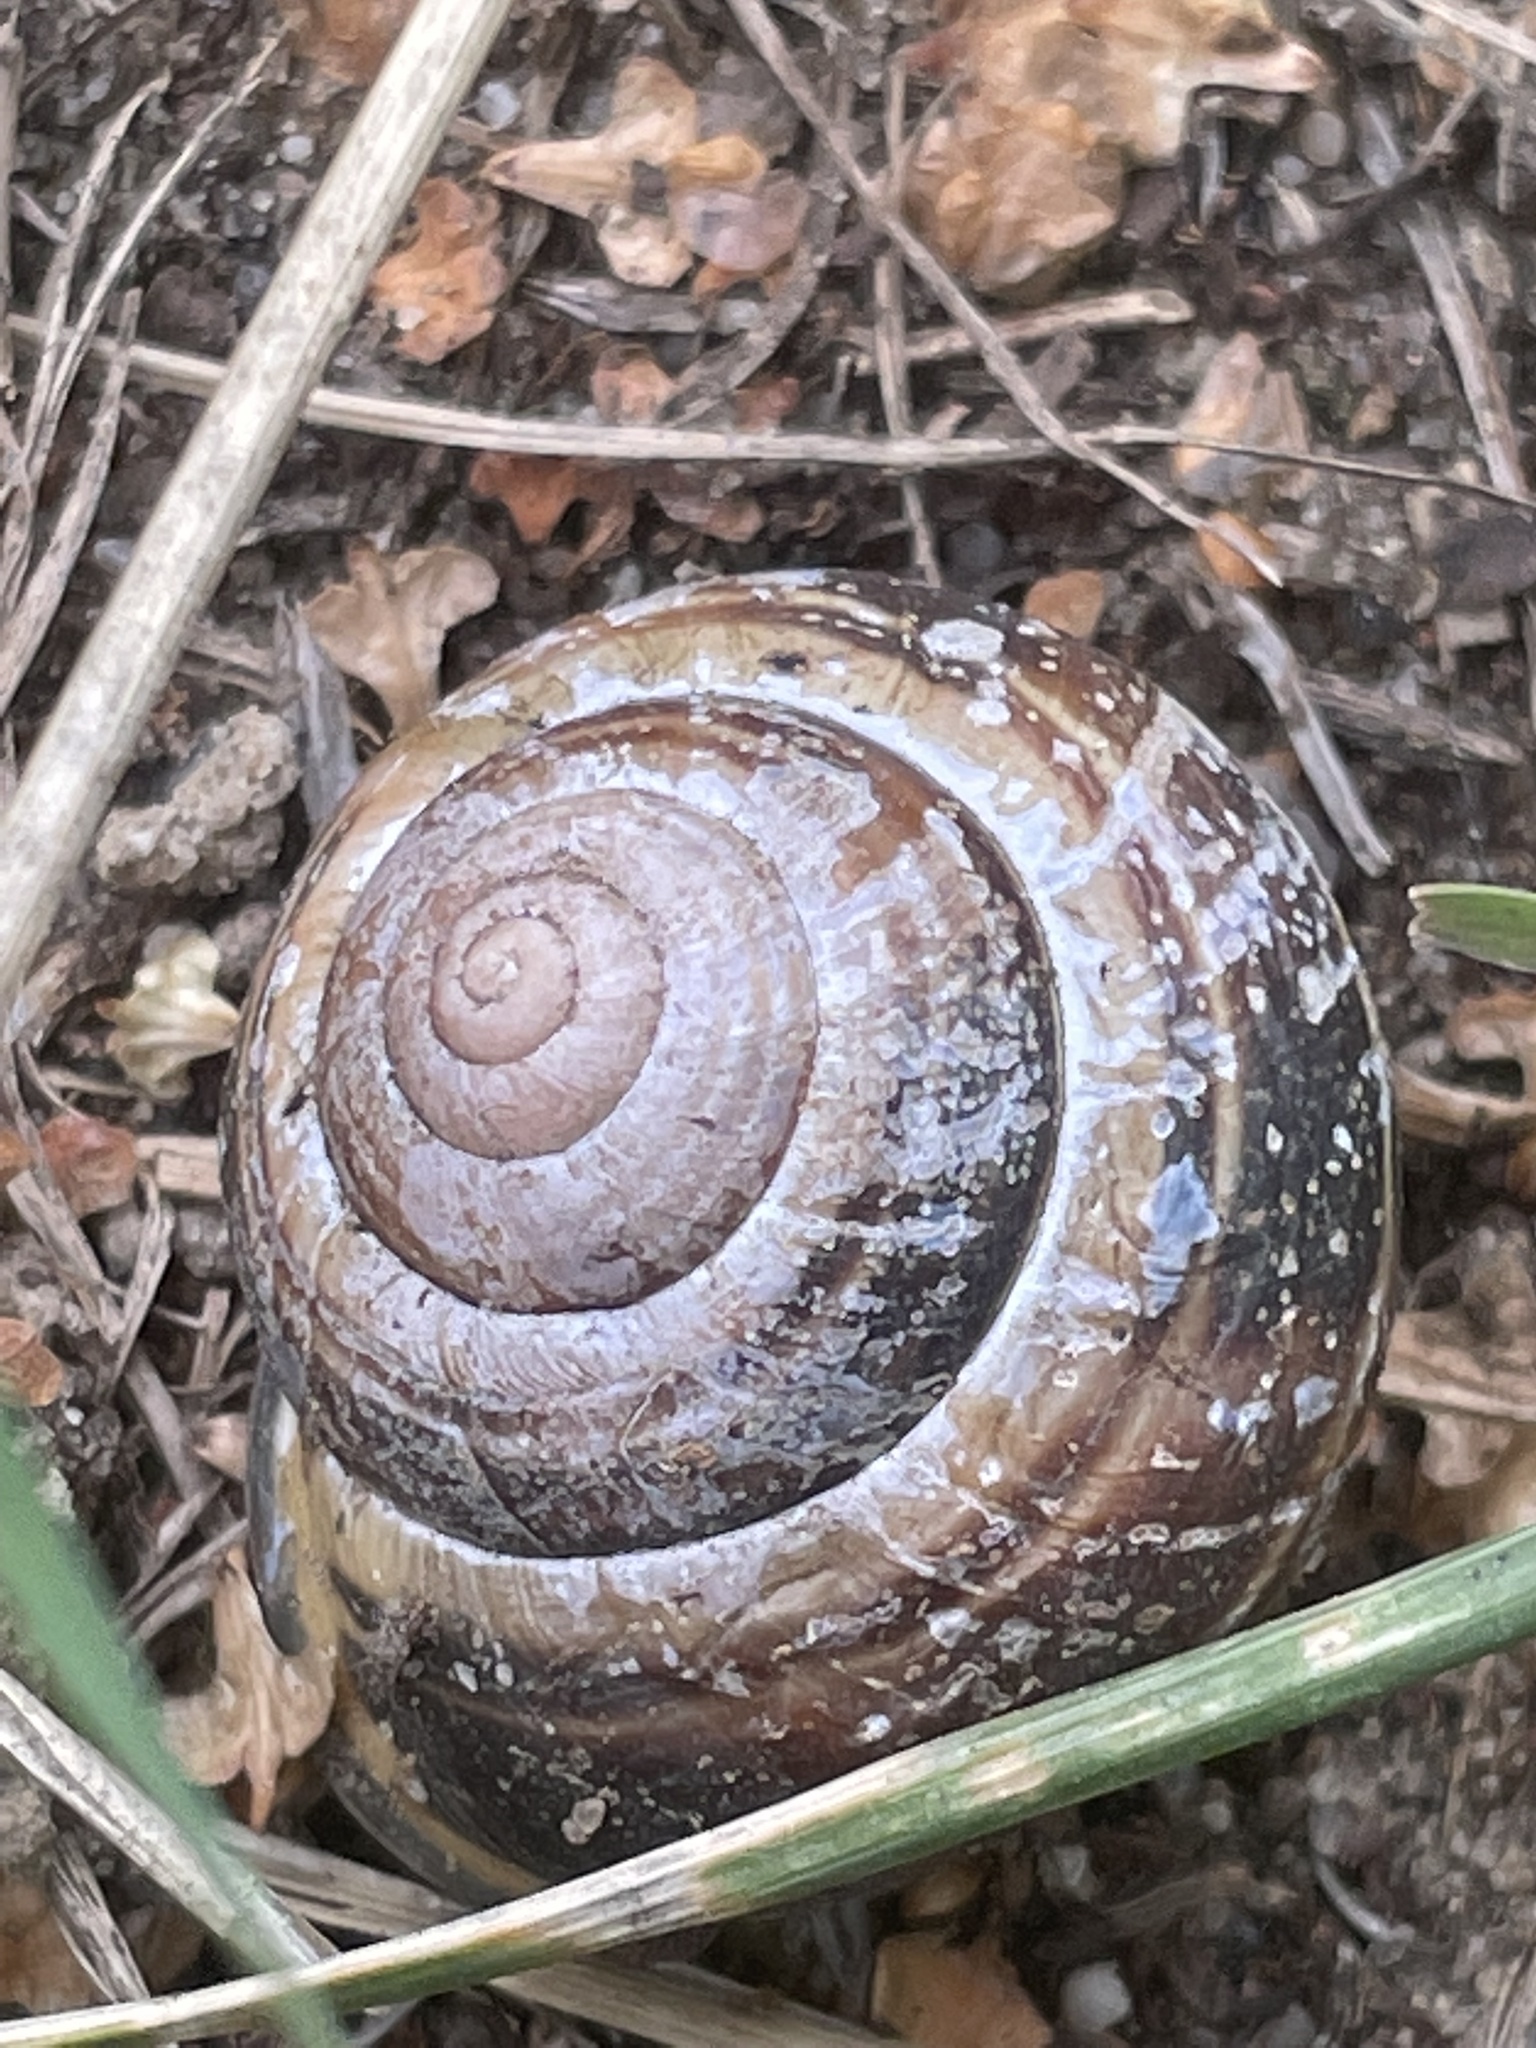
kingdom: Animalia
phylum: Mollusca
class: Gastropoda
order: Stylommatophora
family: Helicidae
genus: Cepaea
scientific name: Cepaea nemoralis
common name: Grovesnail
